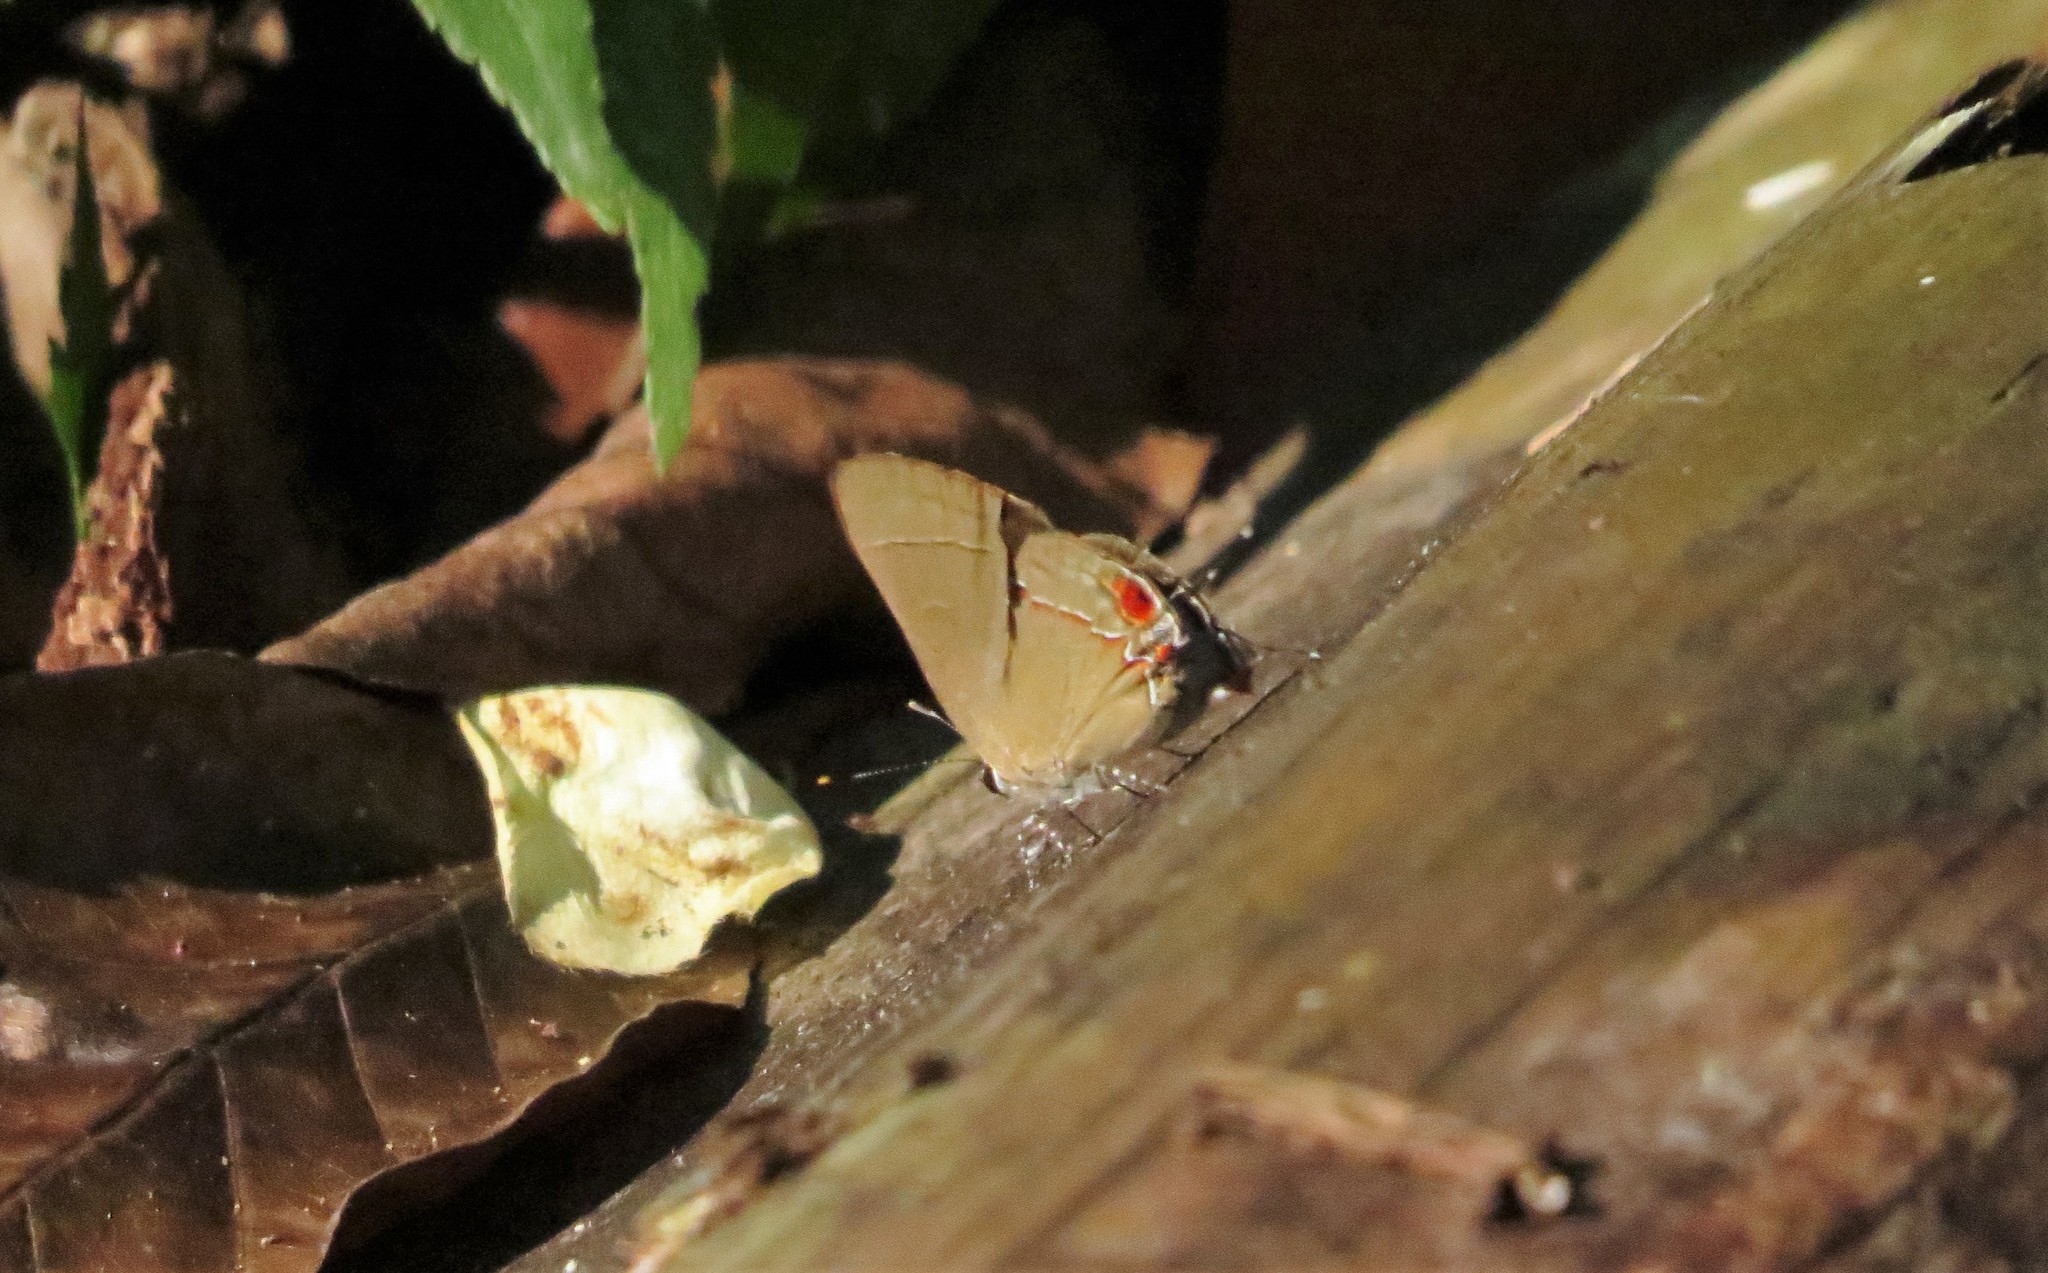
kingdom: Animalia
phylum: Arthropoda
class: Insecta
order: Lepidoptera
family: Lycaenidae
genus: Thecla
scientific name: Thecla syllis
